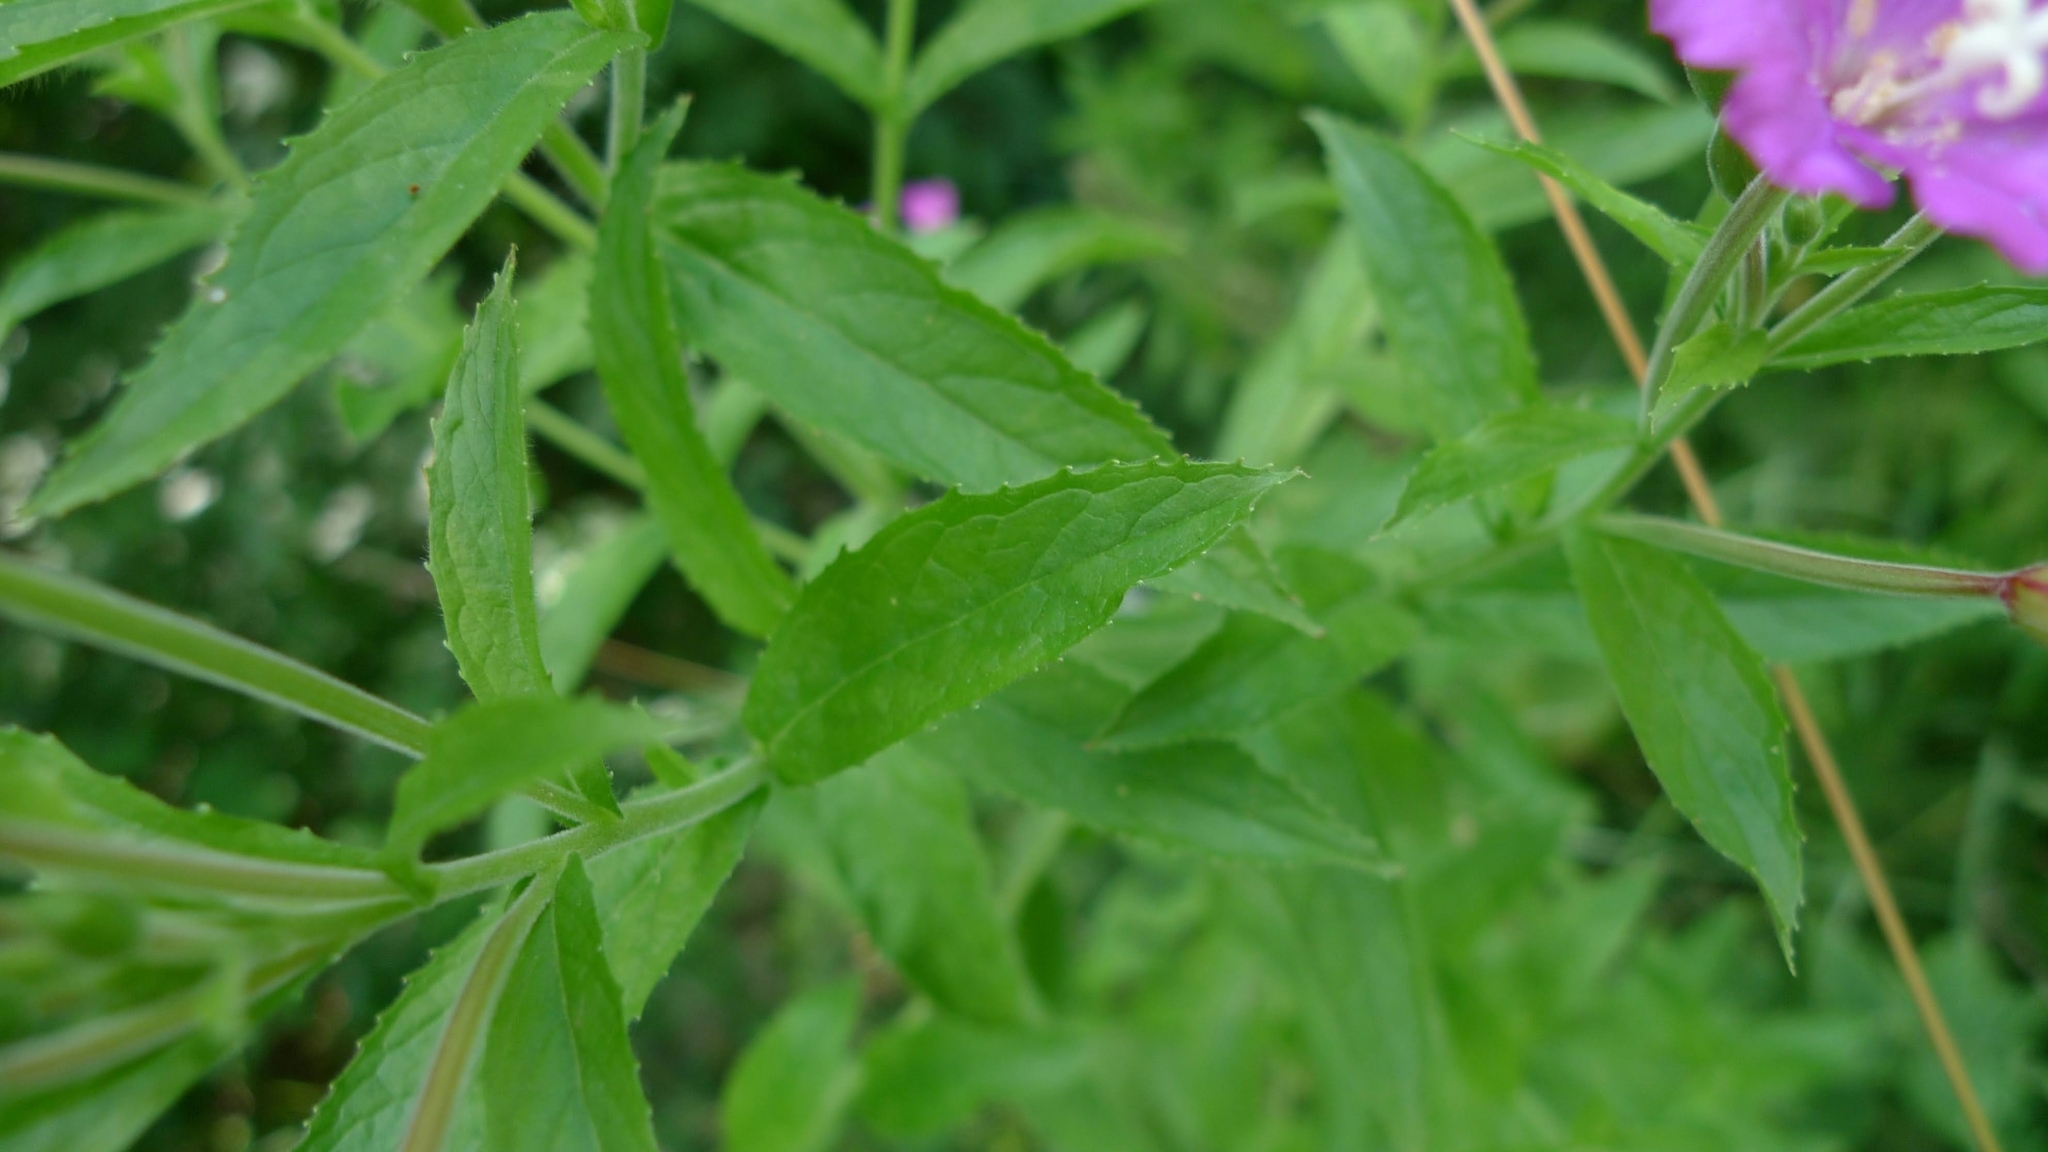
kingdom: Plantae
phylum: Tracheophyta
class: Magnoliopsida
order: Myrtales
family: Onagraceae
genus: Epilobium
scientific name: Epilobium hirsutum
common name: Great willowherb
